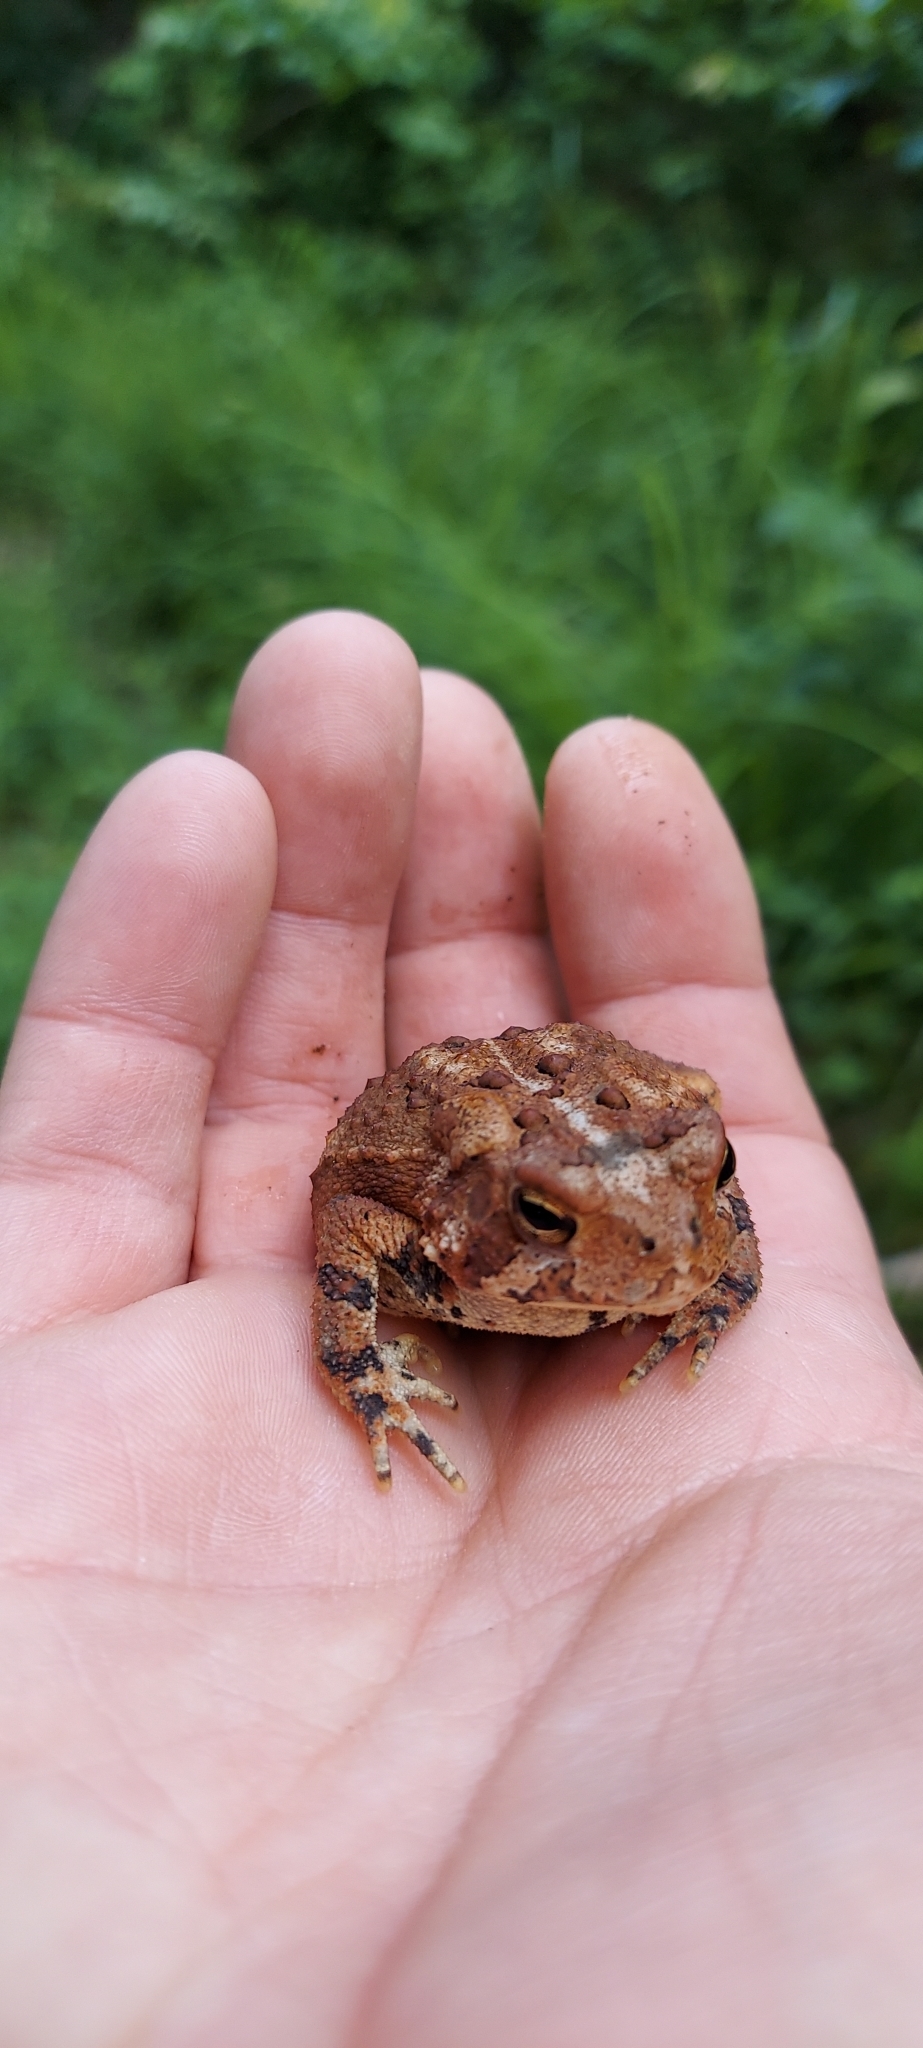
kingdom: Animalia
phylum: Chordata
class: Amphibia
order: Anura
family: Bufonidae
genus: Anaxyrus
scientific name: Anaxyrus americanus
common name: American toad
